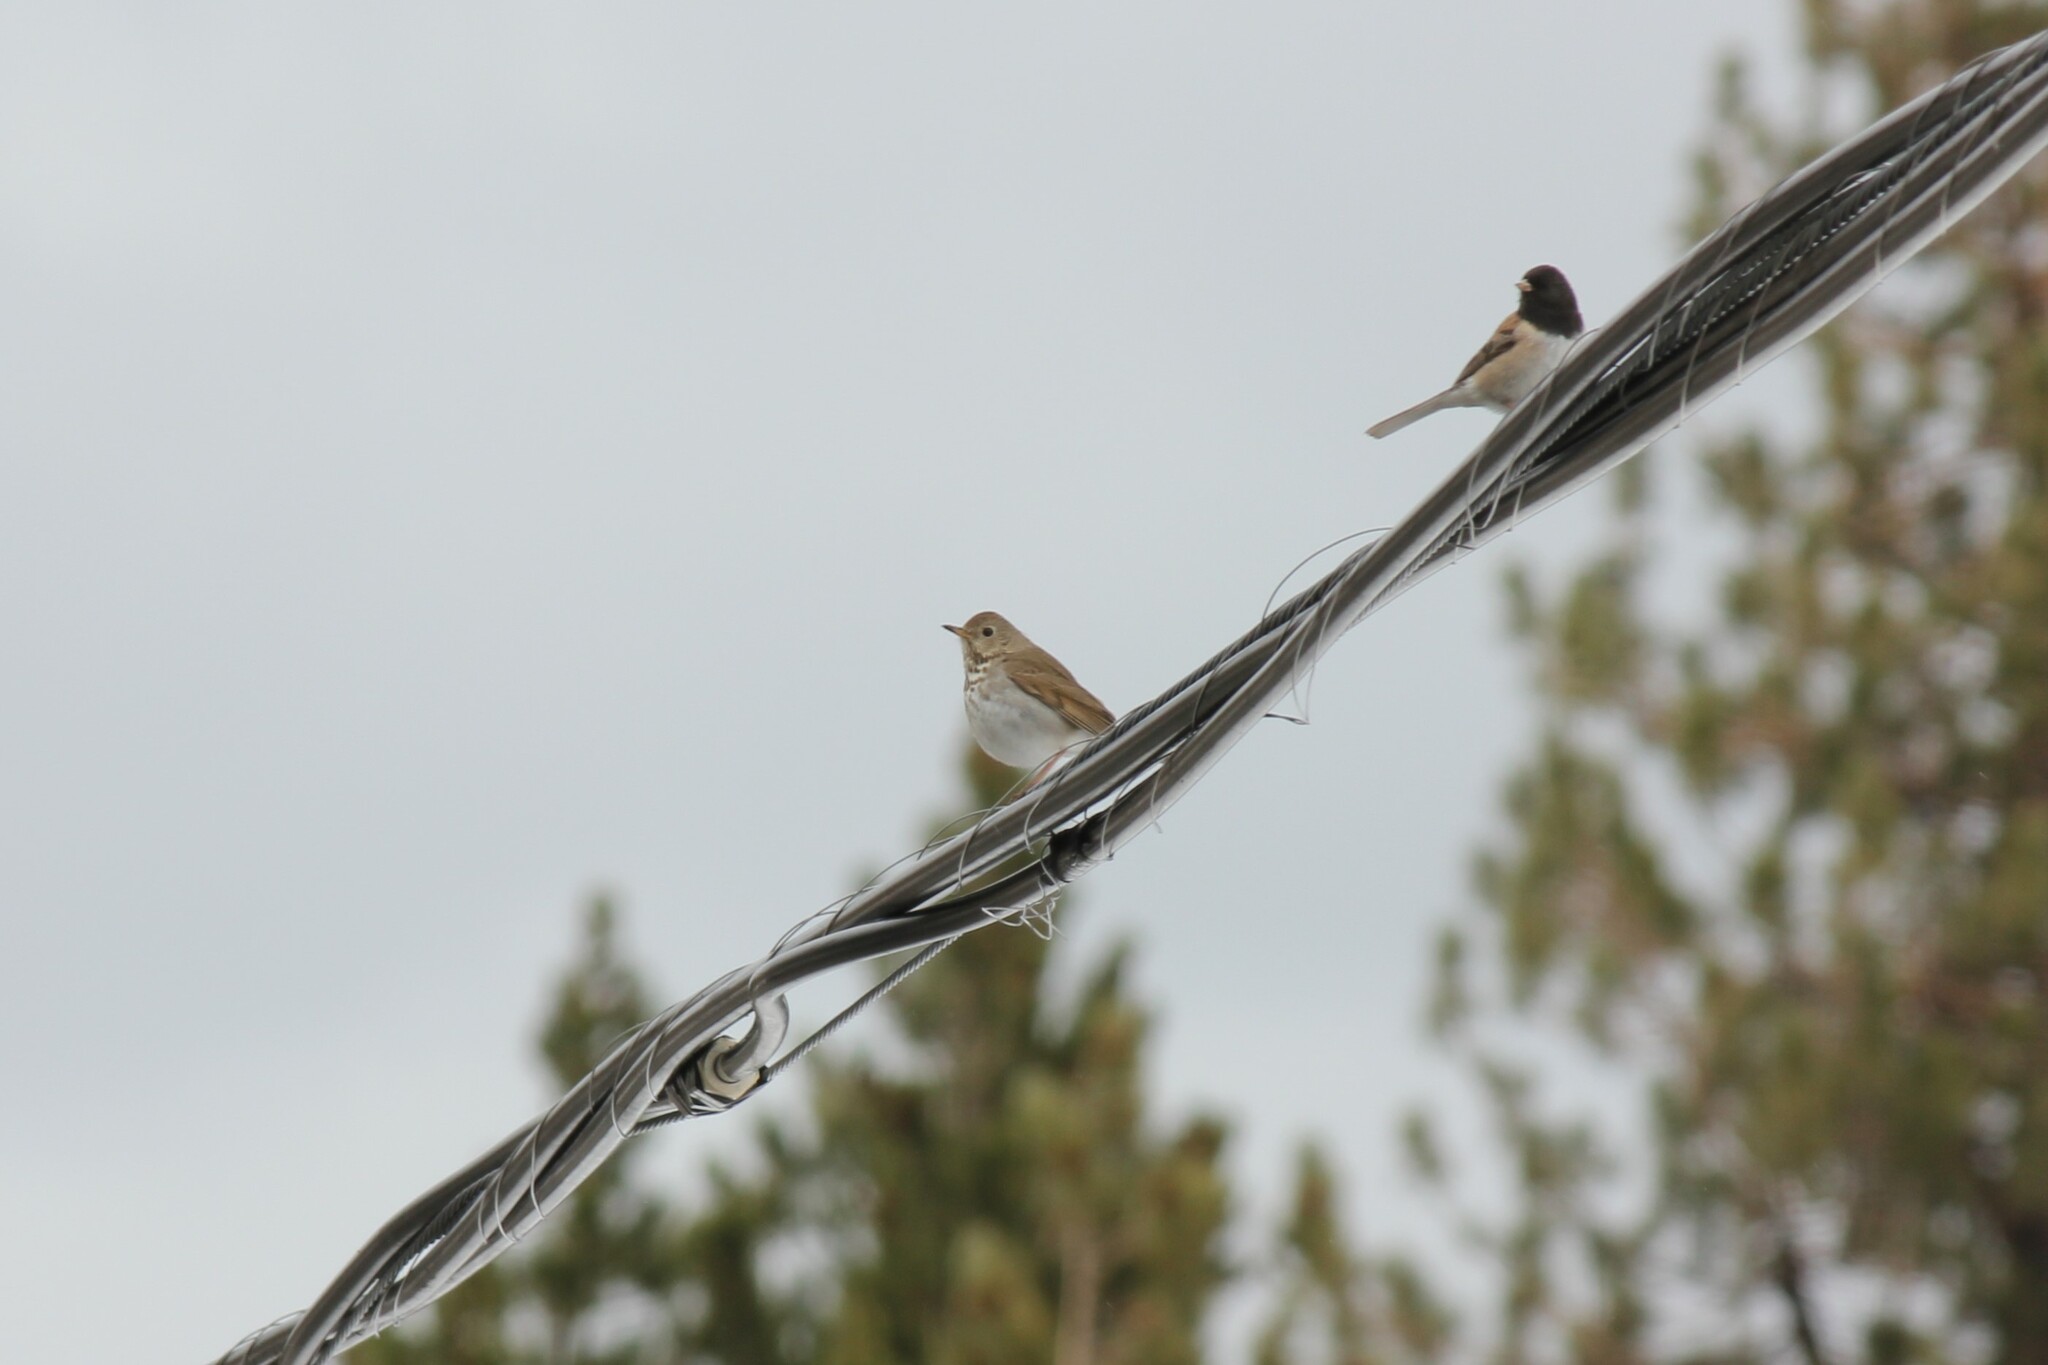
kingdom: Animalia
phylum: Chordata
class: Aves
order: Passeriformes
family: Turdidae
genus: Catharus
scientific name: Catharus guttatus
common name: Hermit thrush
